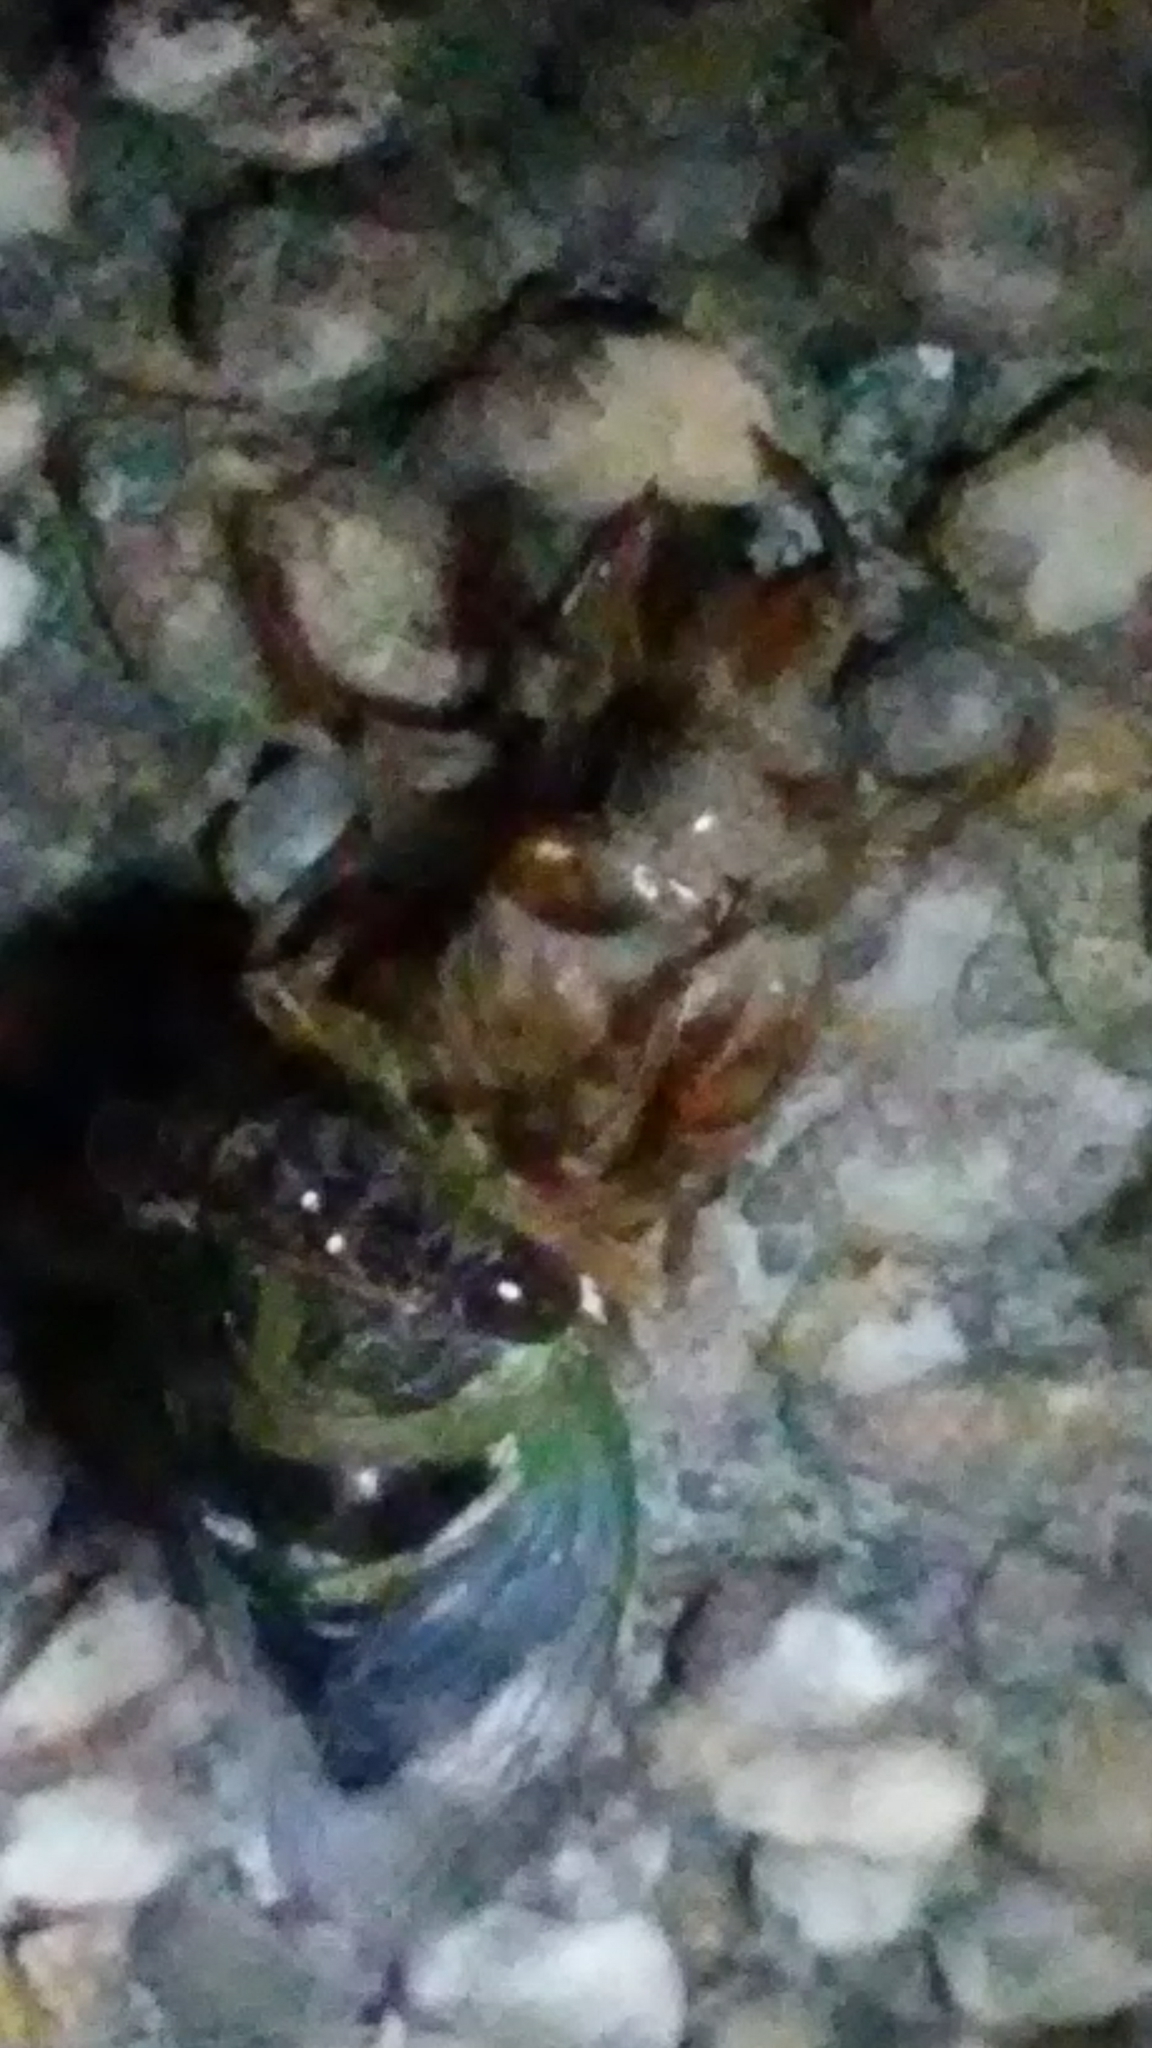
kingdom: Animalia
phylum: Arthropoda
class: Insecta
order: Hemiptera
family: Cicadidae
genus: Neotibicen
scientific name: Neotibicen davisi
